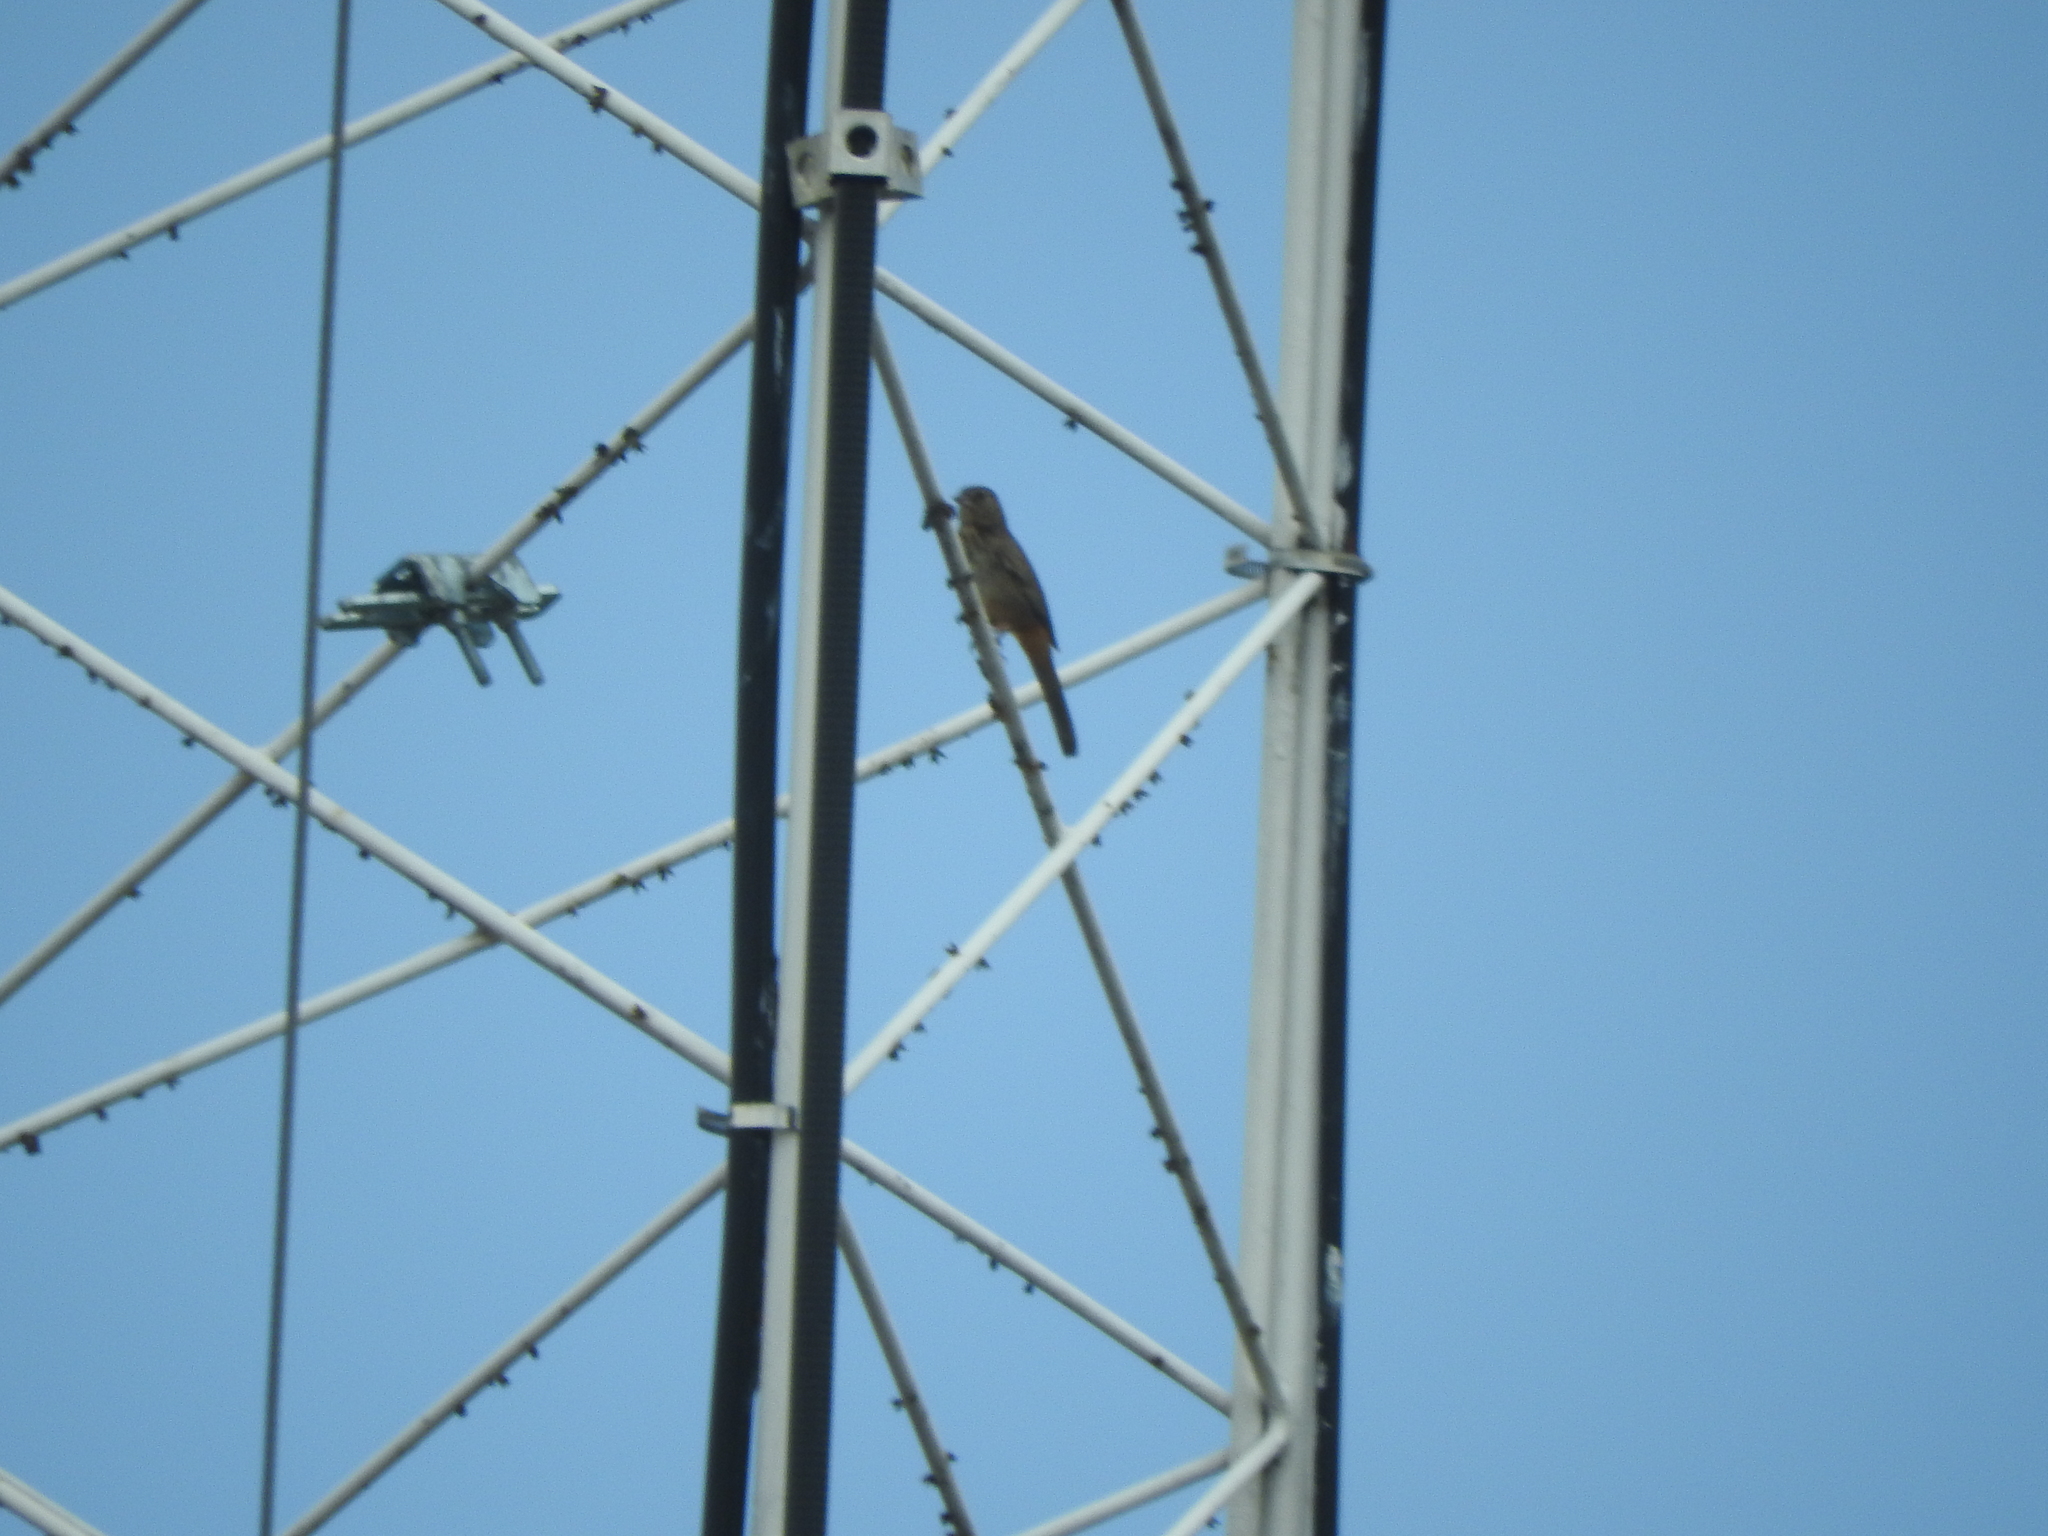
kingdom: Animalia
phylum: Chordata
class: Aves
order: Passeriformes
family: Passerellidae
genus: Melozone
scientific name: Melozone fusca
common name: Canyon towhee
